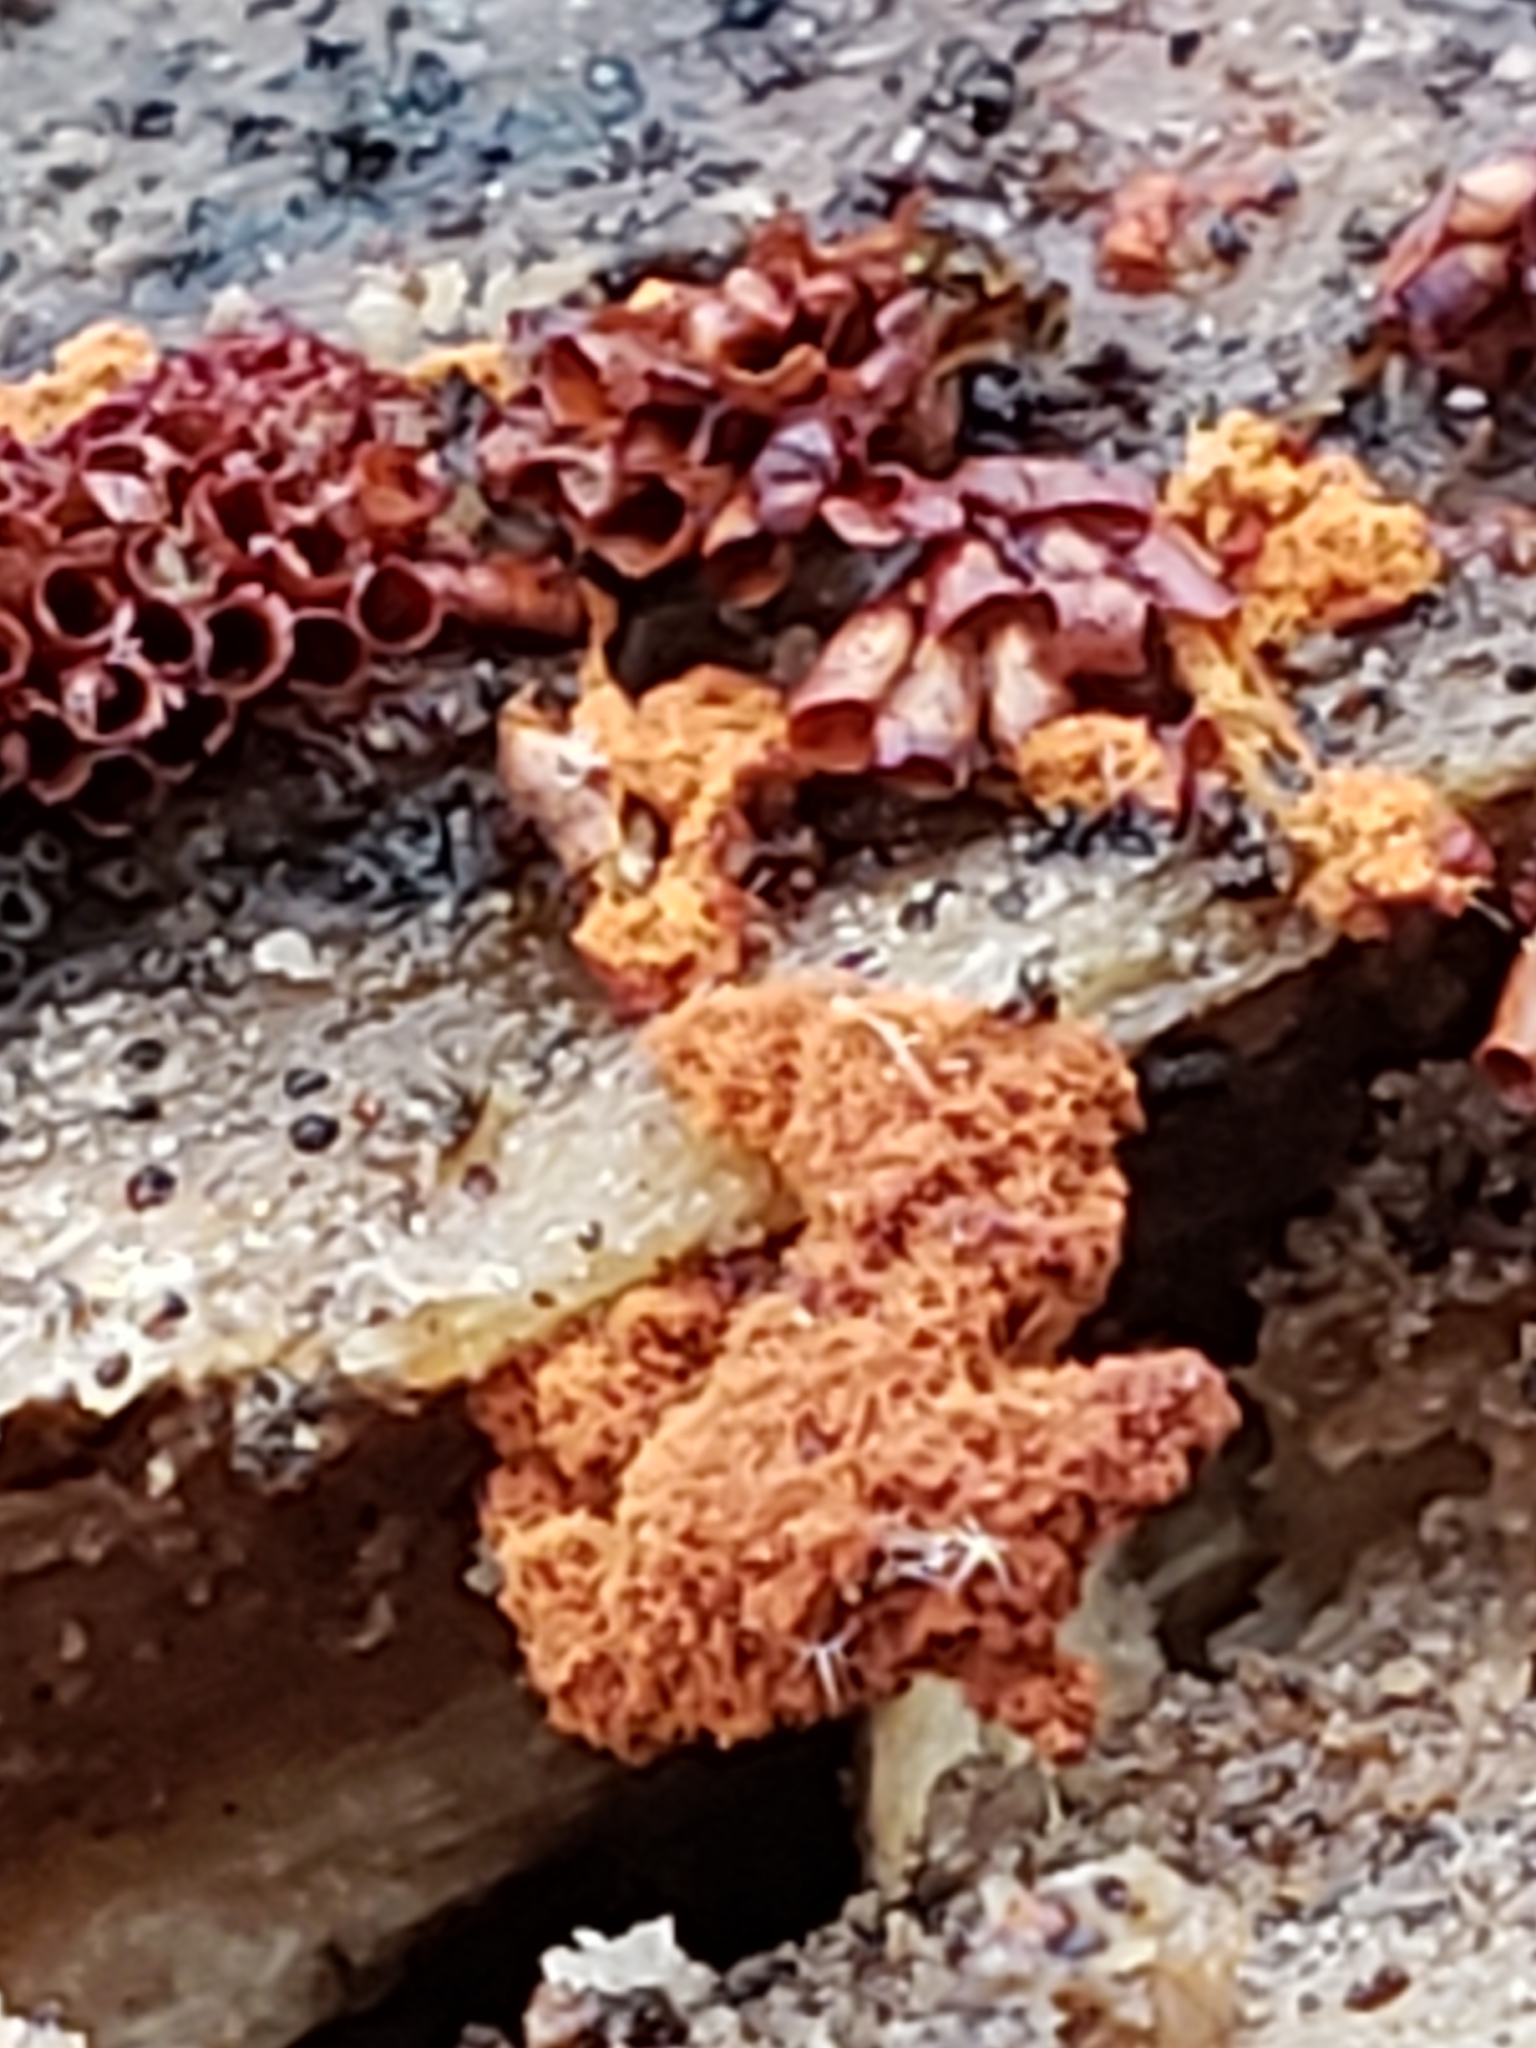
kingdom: Protozoa
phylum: Mycetozoa
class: Myxomycetes
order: Trichiales
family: Trichiaceae
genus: Metatrichia
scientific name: Metatrichia vesparia
